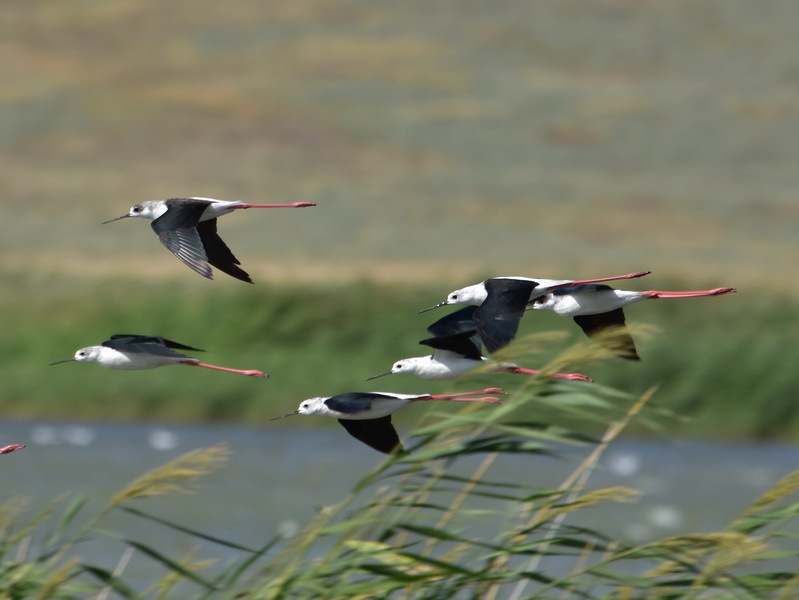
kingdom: Animalia
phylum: Chordata
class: Aves
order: Charadriiformes
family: Recurvirostridae
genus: Himantopus
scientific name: Himantopus himantopus
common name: Black-winged stilt
